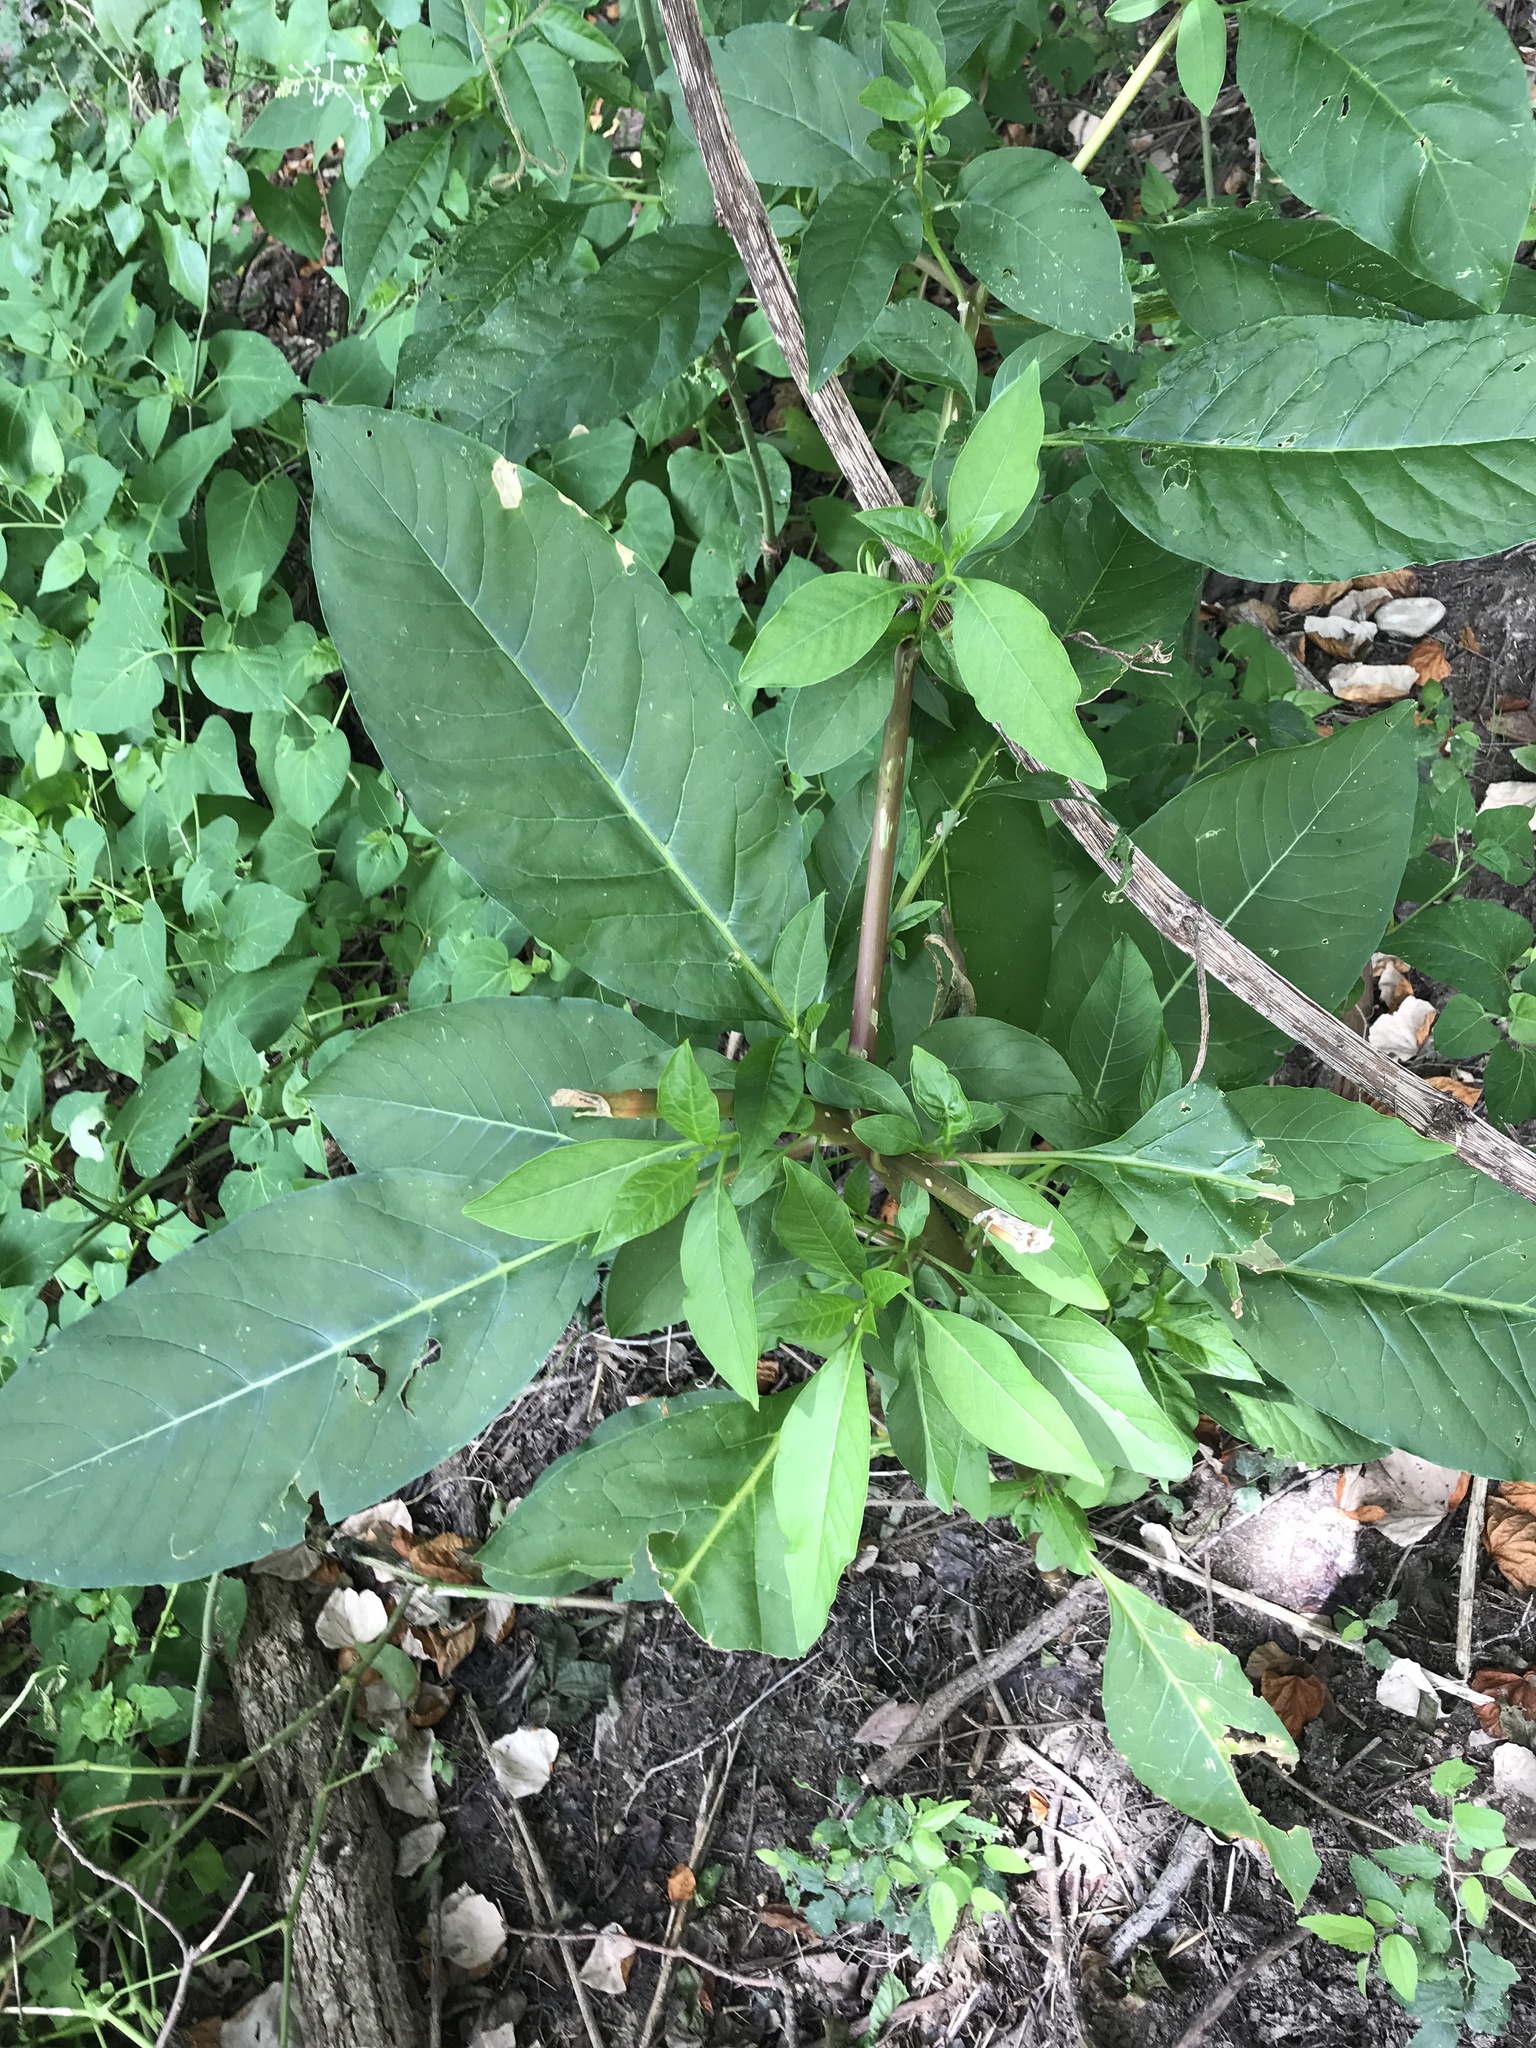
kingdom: Plantae
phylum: Tracheophyta
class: Magnoliopsida
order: Caryophyllales
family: Phytolaccaceae
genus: Phytolacca
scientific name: Phytolacca americana
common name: American pokeweed
